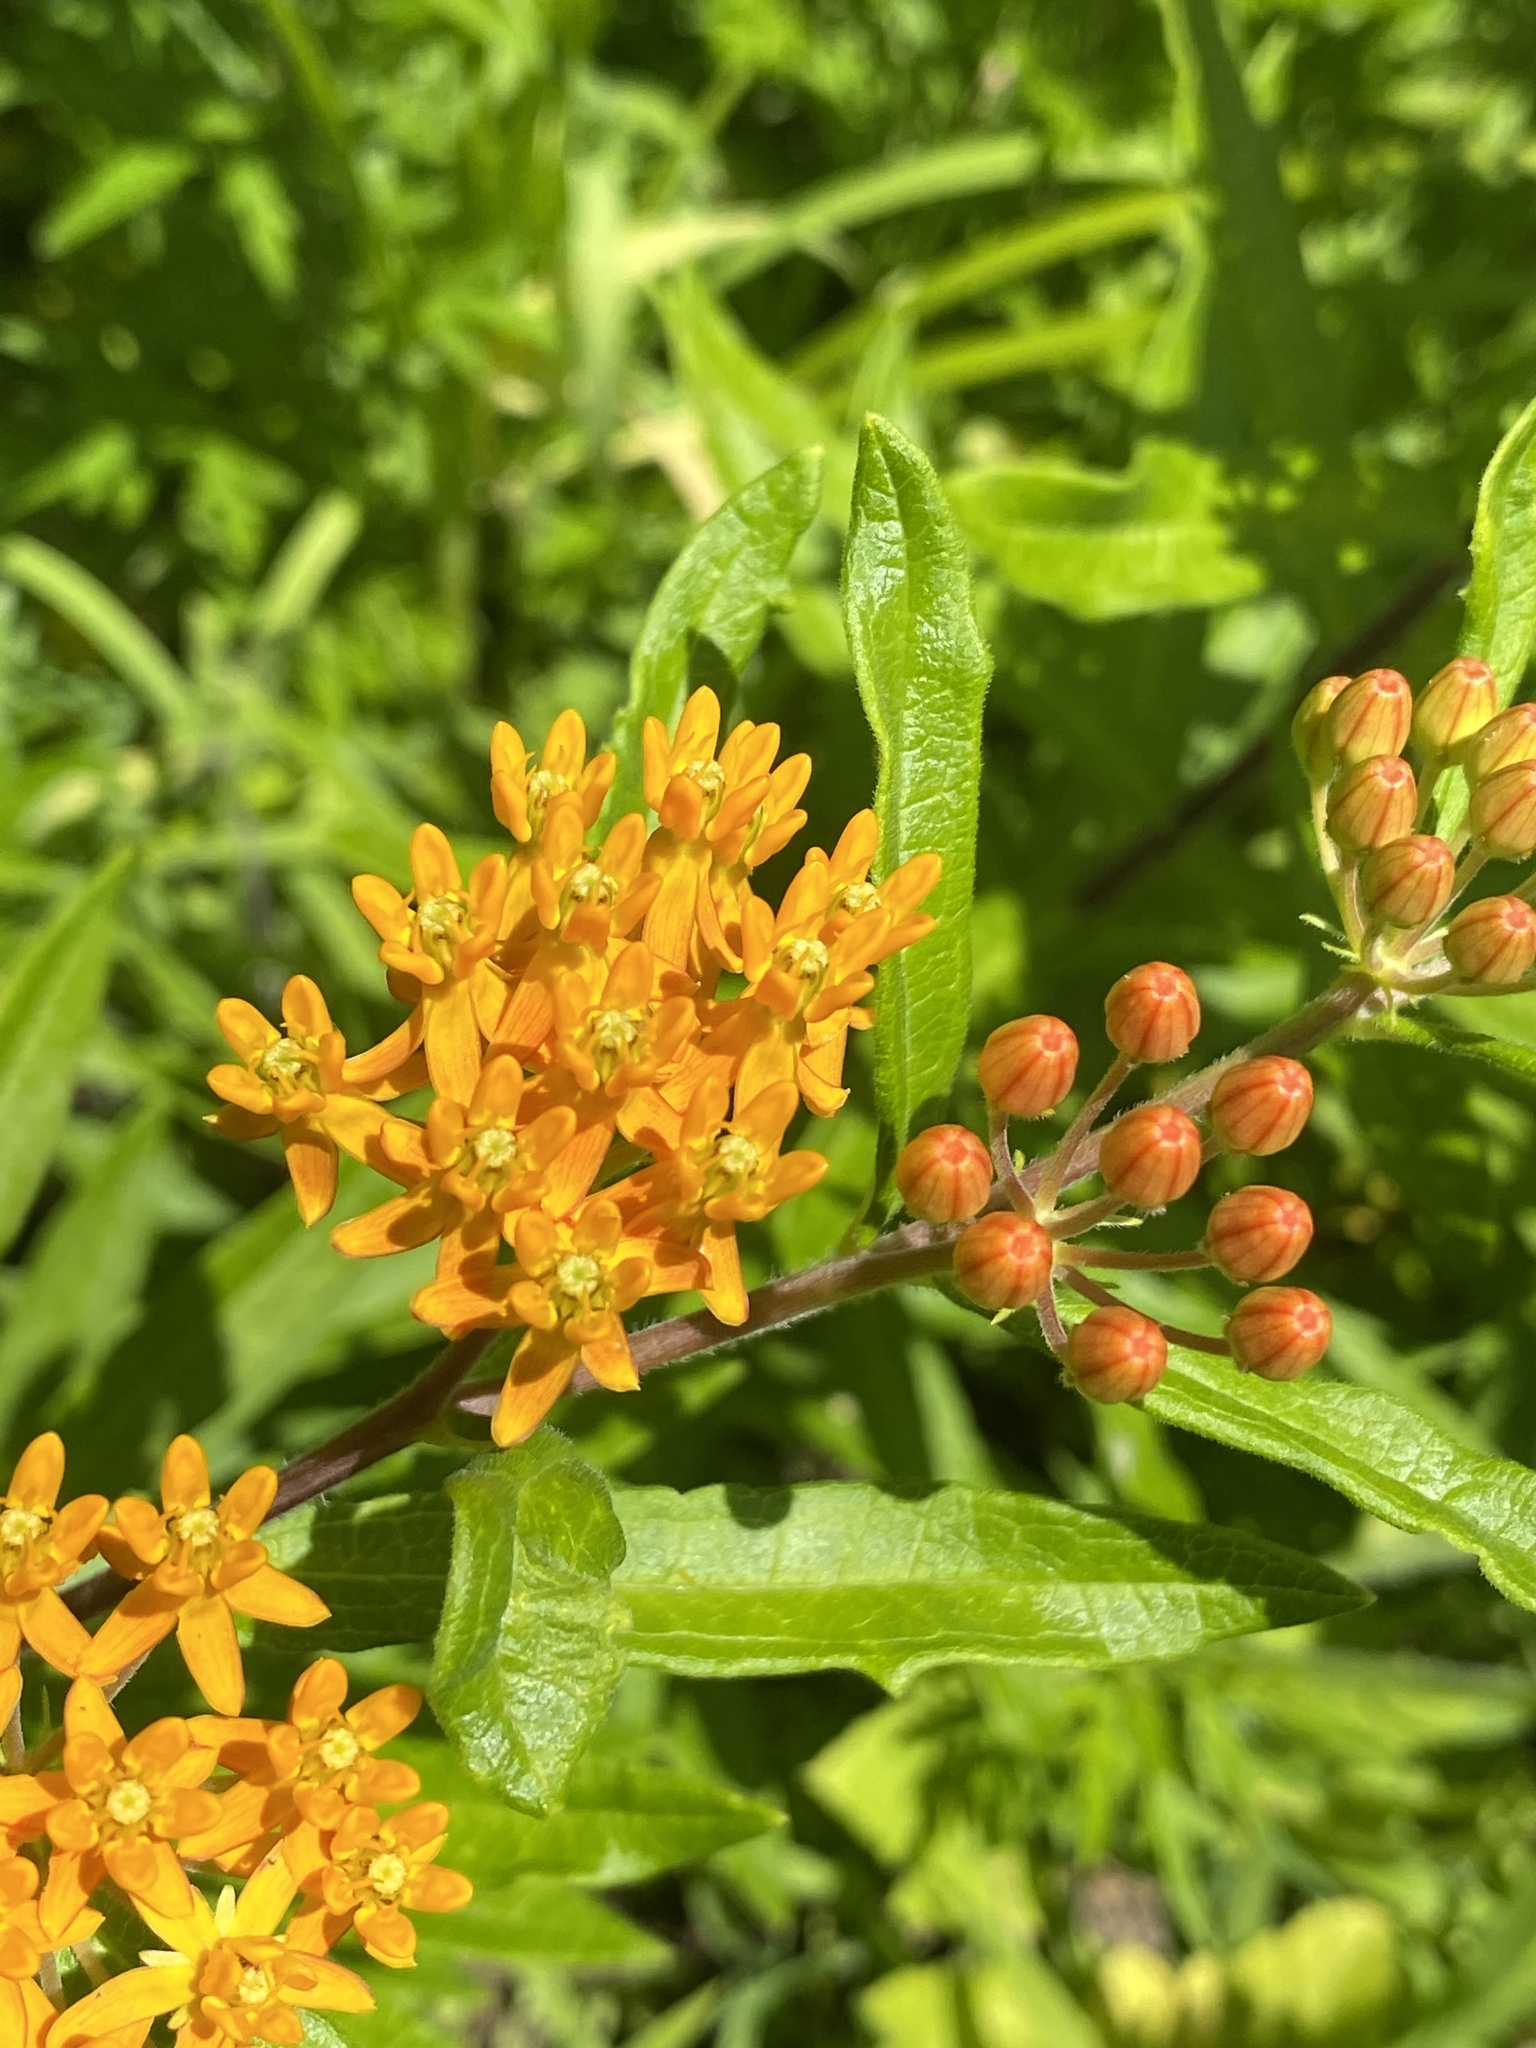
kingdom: Plantae
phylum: Tracheophyta
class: Magnoliopsida
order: Gentianales
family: Apocynaceae
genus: Asclepias
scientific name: Asclepias tuberosa
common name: Butterfly milkweed
